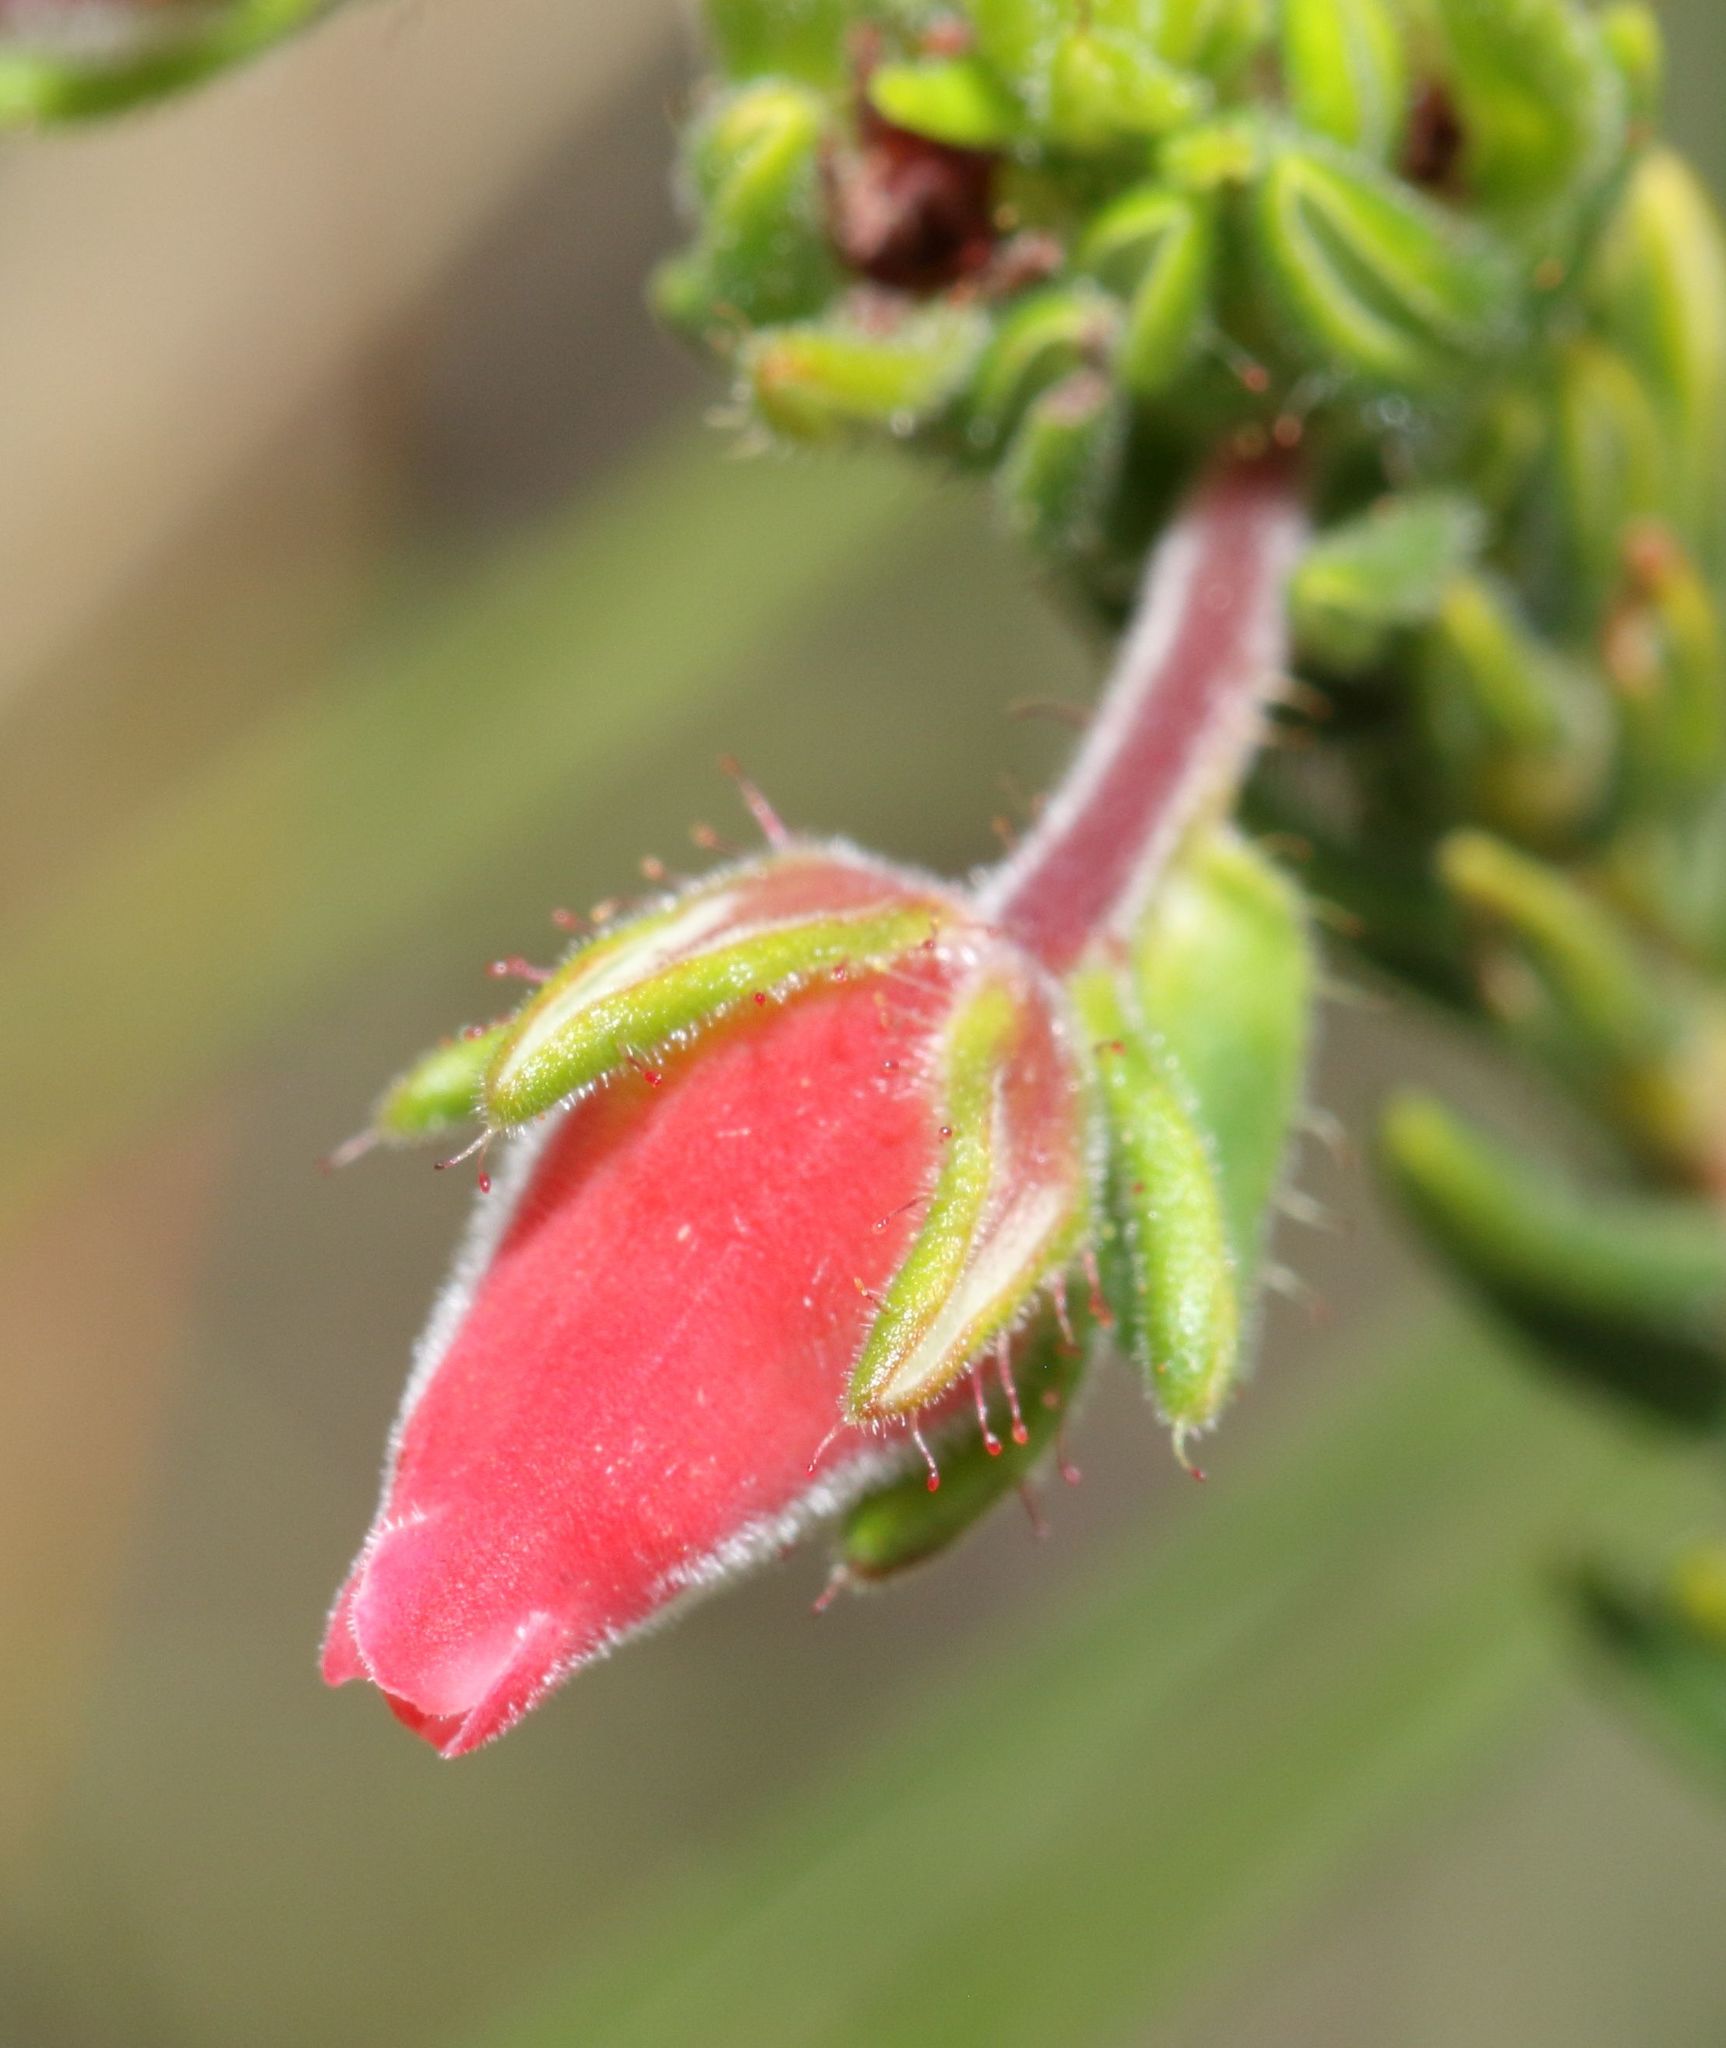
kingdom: Plantae
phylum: Tracheophyta
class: Magnoliopsida
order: Ericales
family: Ericaceae
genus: Erica
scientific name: Erica oatesii
